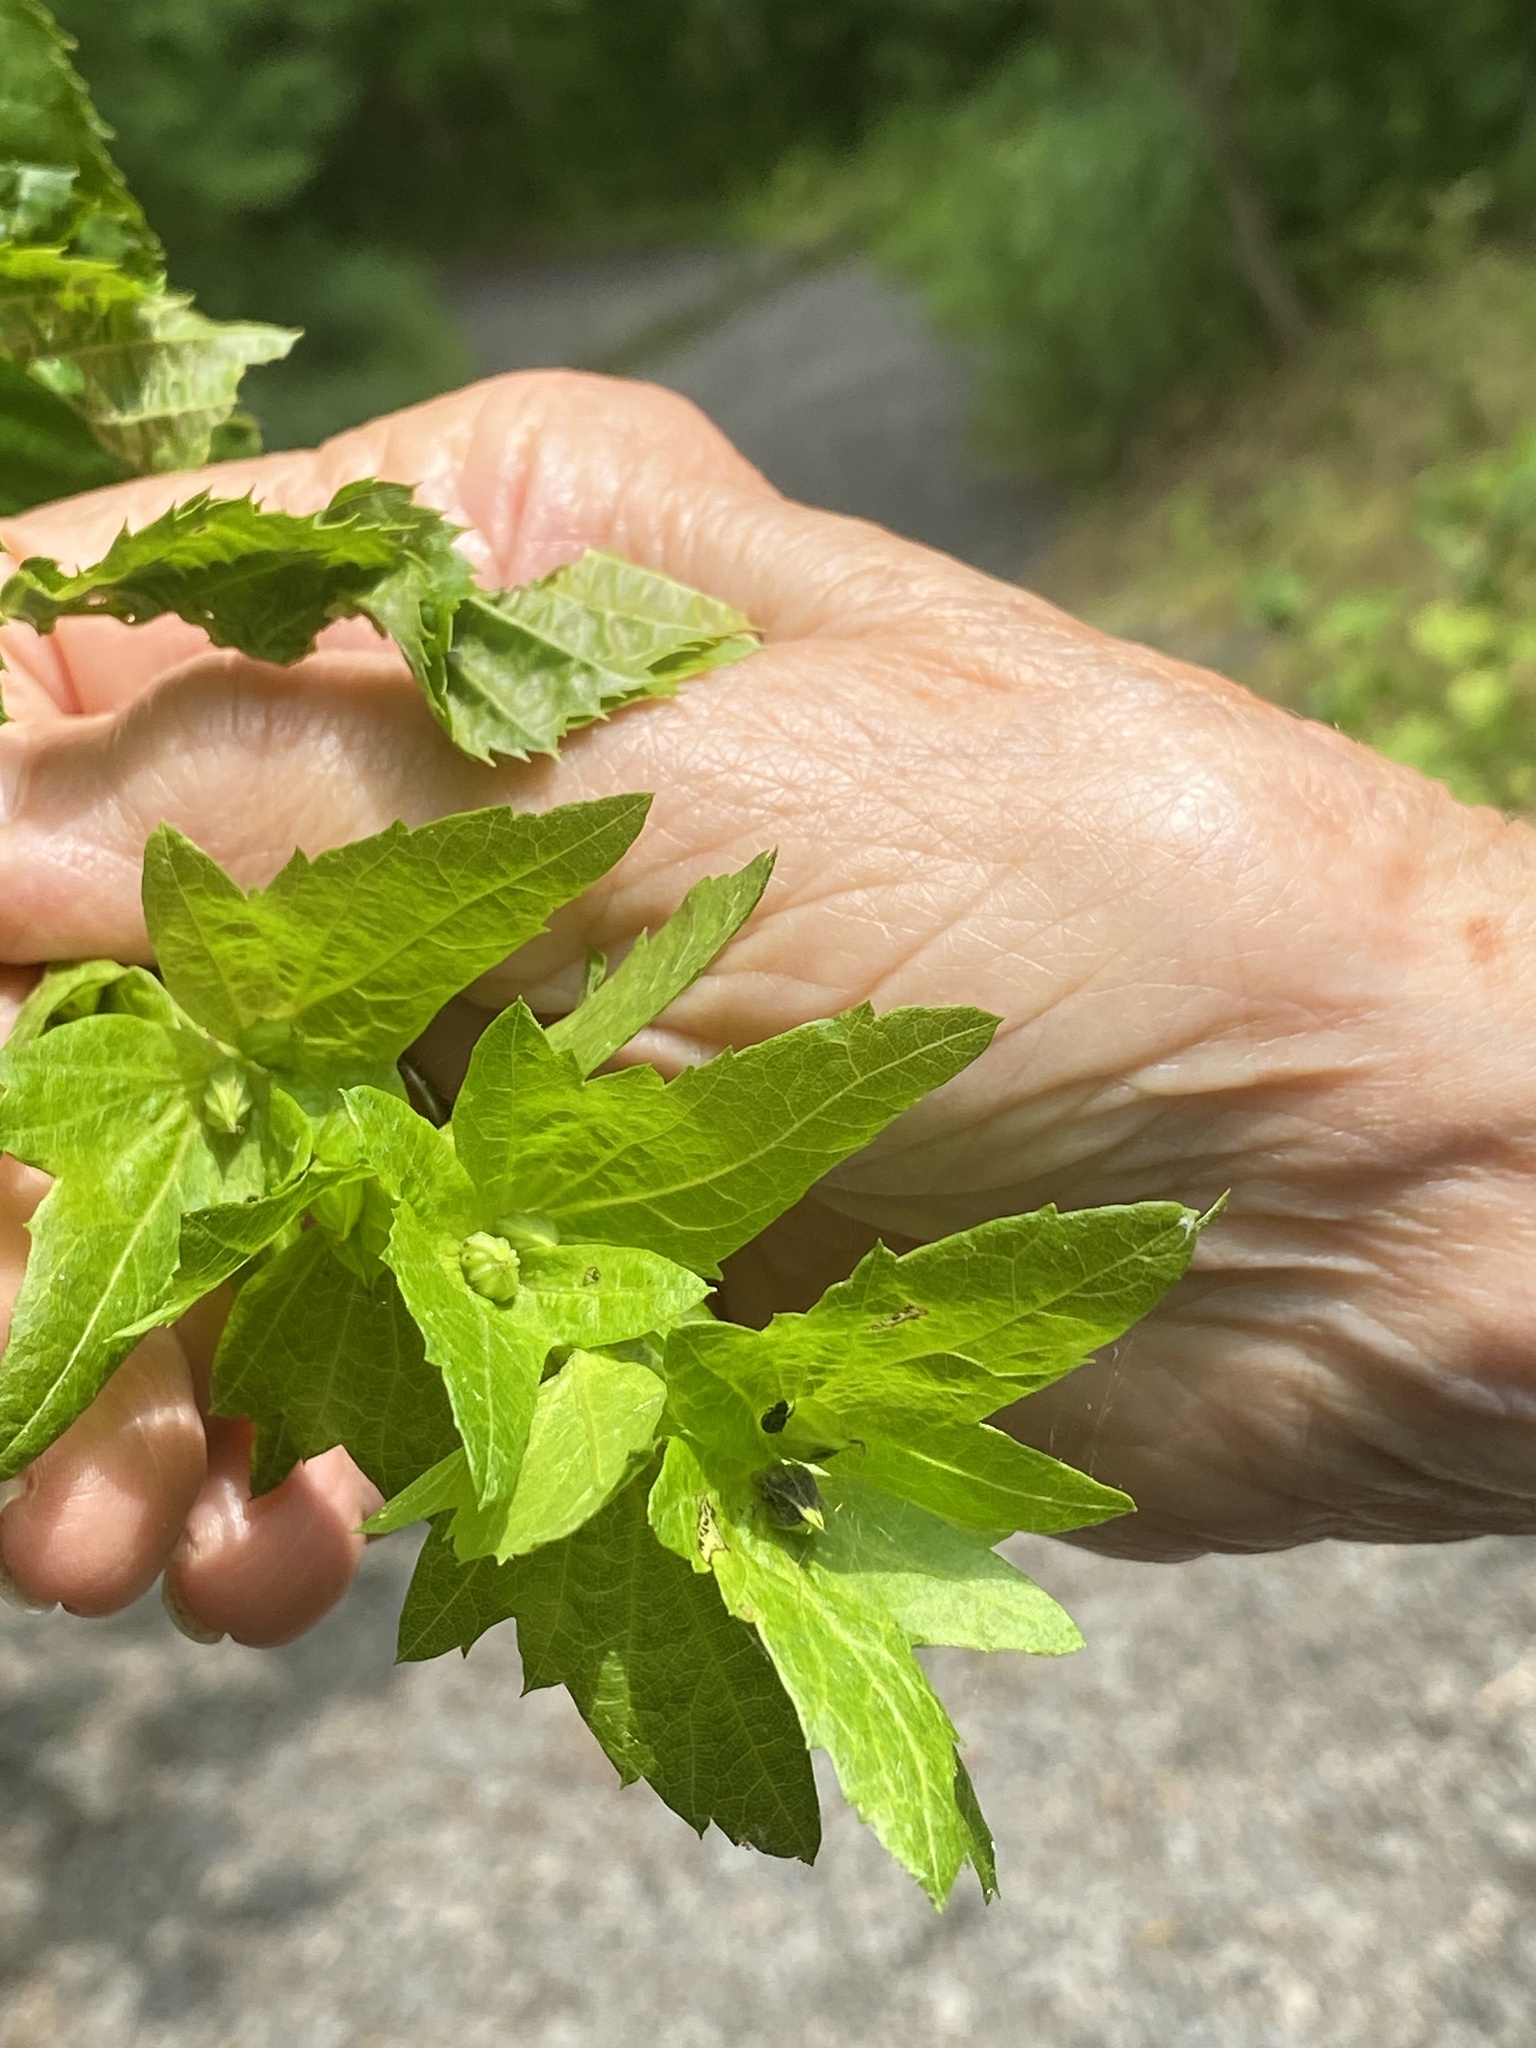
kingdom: Plantae
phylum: Tracheophyta
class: Magnoliopsida
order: Fagales
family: Betulaceae
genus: Carpinus
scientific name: Carpinus caroliniana
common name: American hornbeam
